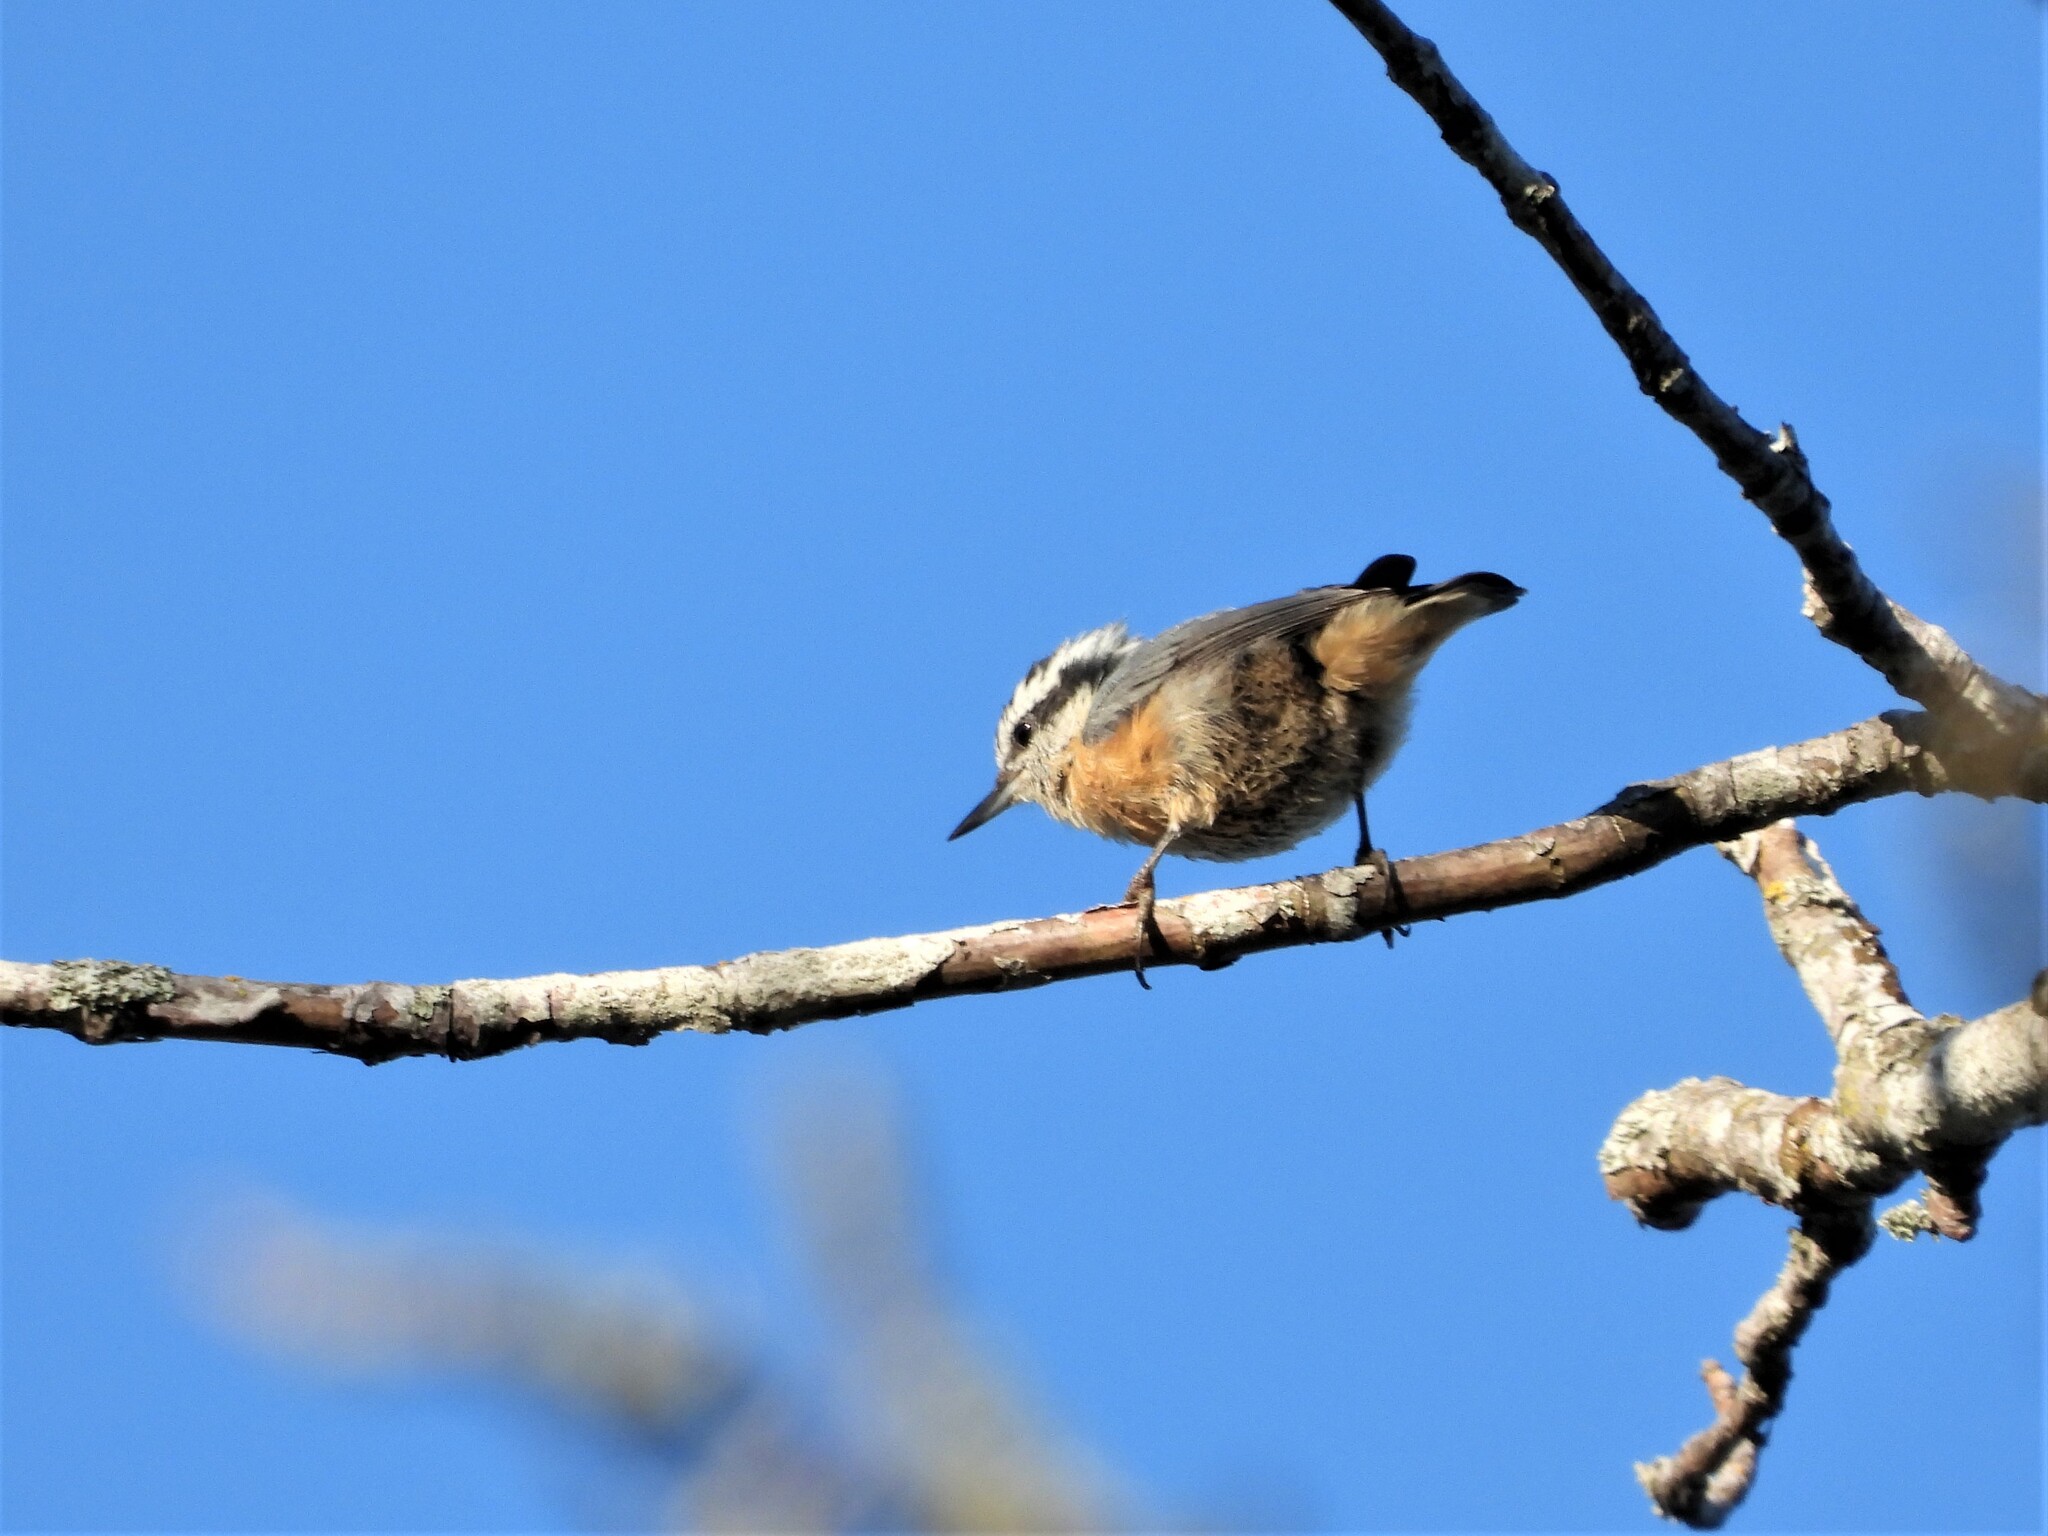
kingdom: Animalia
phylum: Chordata
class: Aves
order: Passeriformes
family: Sittidae
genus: Sitta
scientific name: Sitta canadensis
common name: Red-breasted nuthatch
